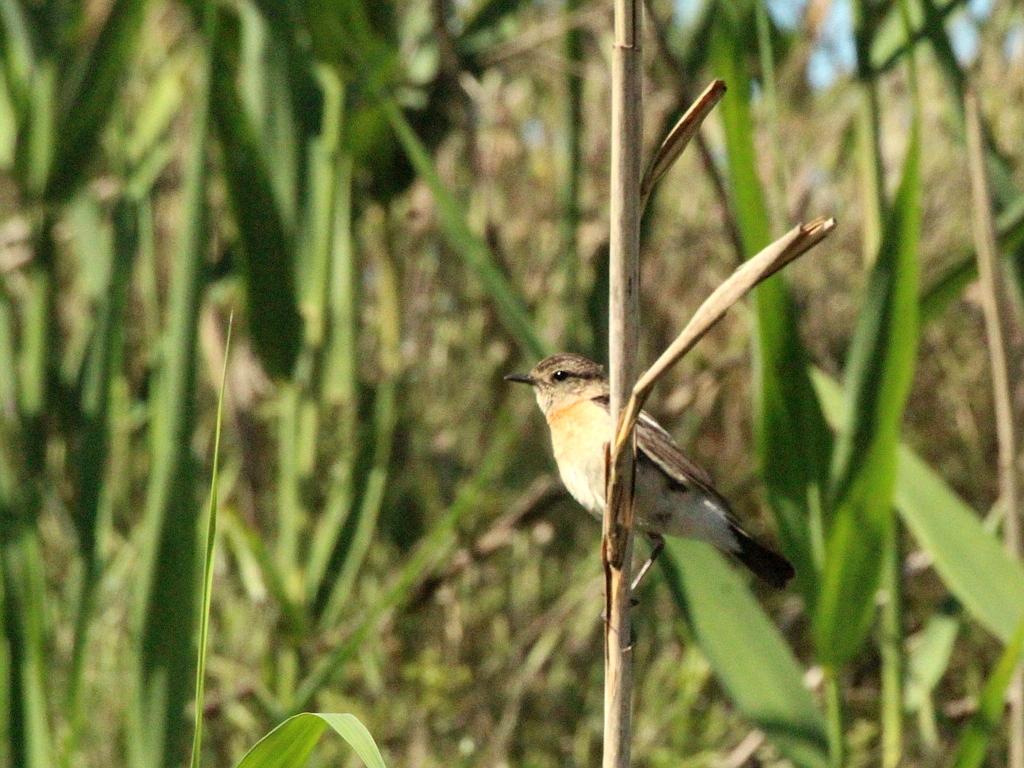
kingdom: Animalia
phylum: Chordata
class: Aves
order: Passeriformes
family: Muscicapidae
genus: Saxicola
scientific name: Saxicola maurus
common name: Siberian stonechat
